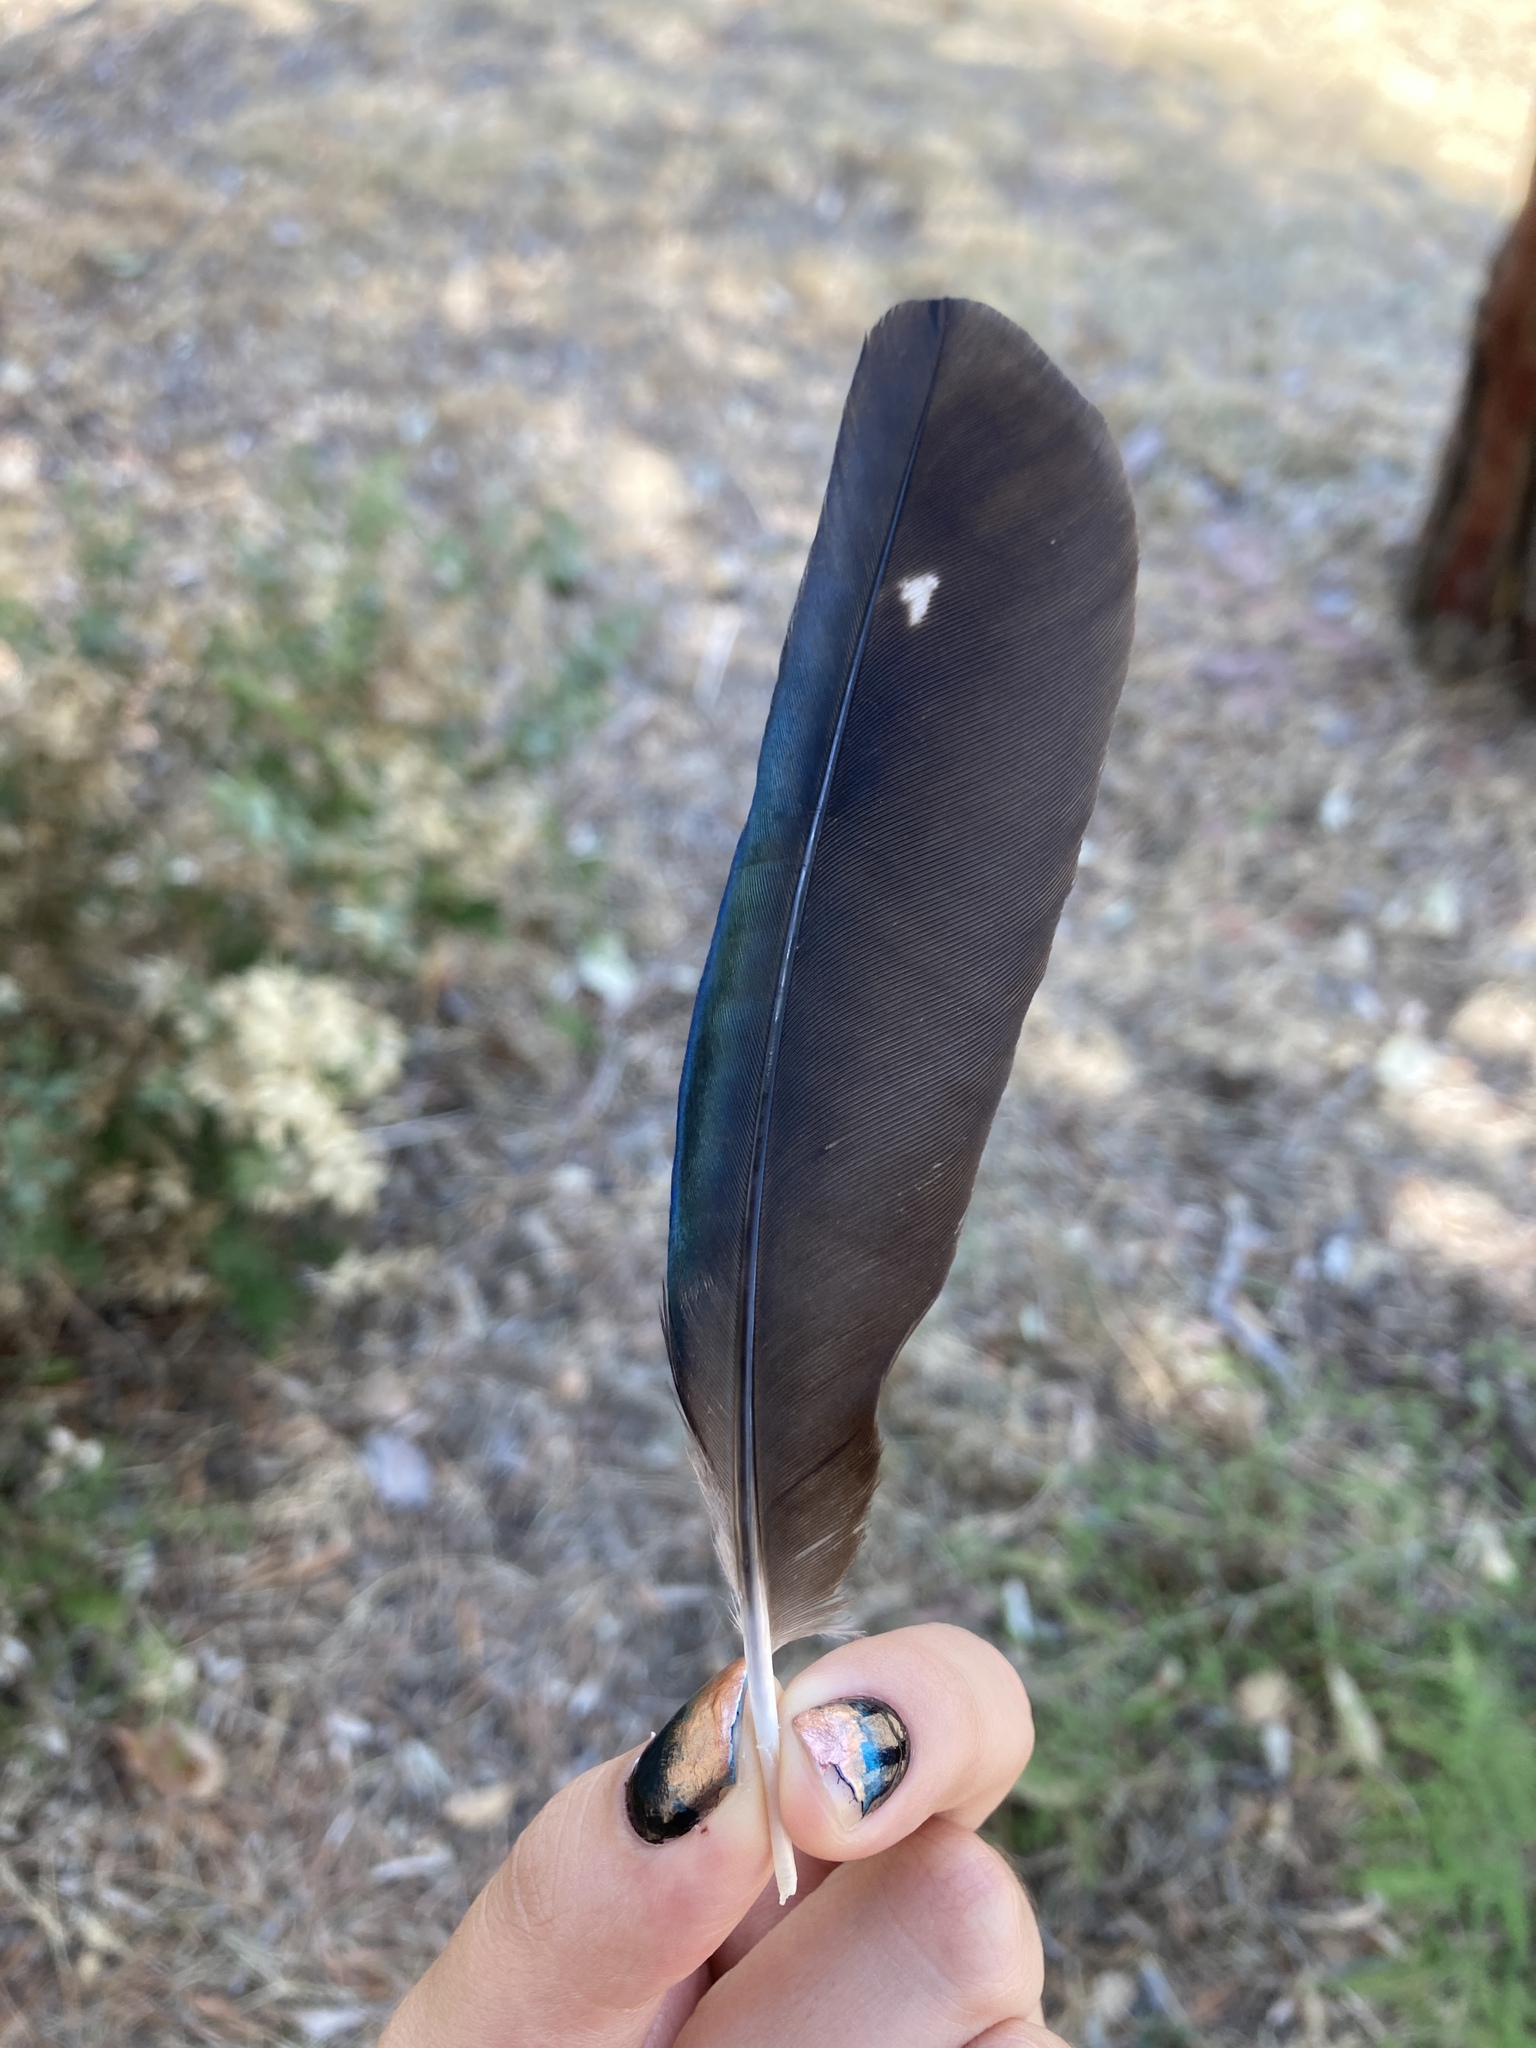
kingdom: Animalia
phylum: Chordata
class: Aves
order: Passeriformes
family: Corvidae
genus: Pica
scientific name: Pica pica
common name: Eurasian magpie
